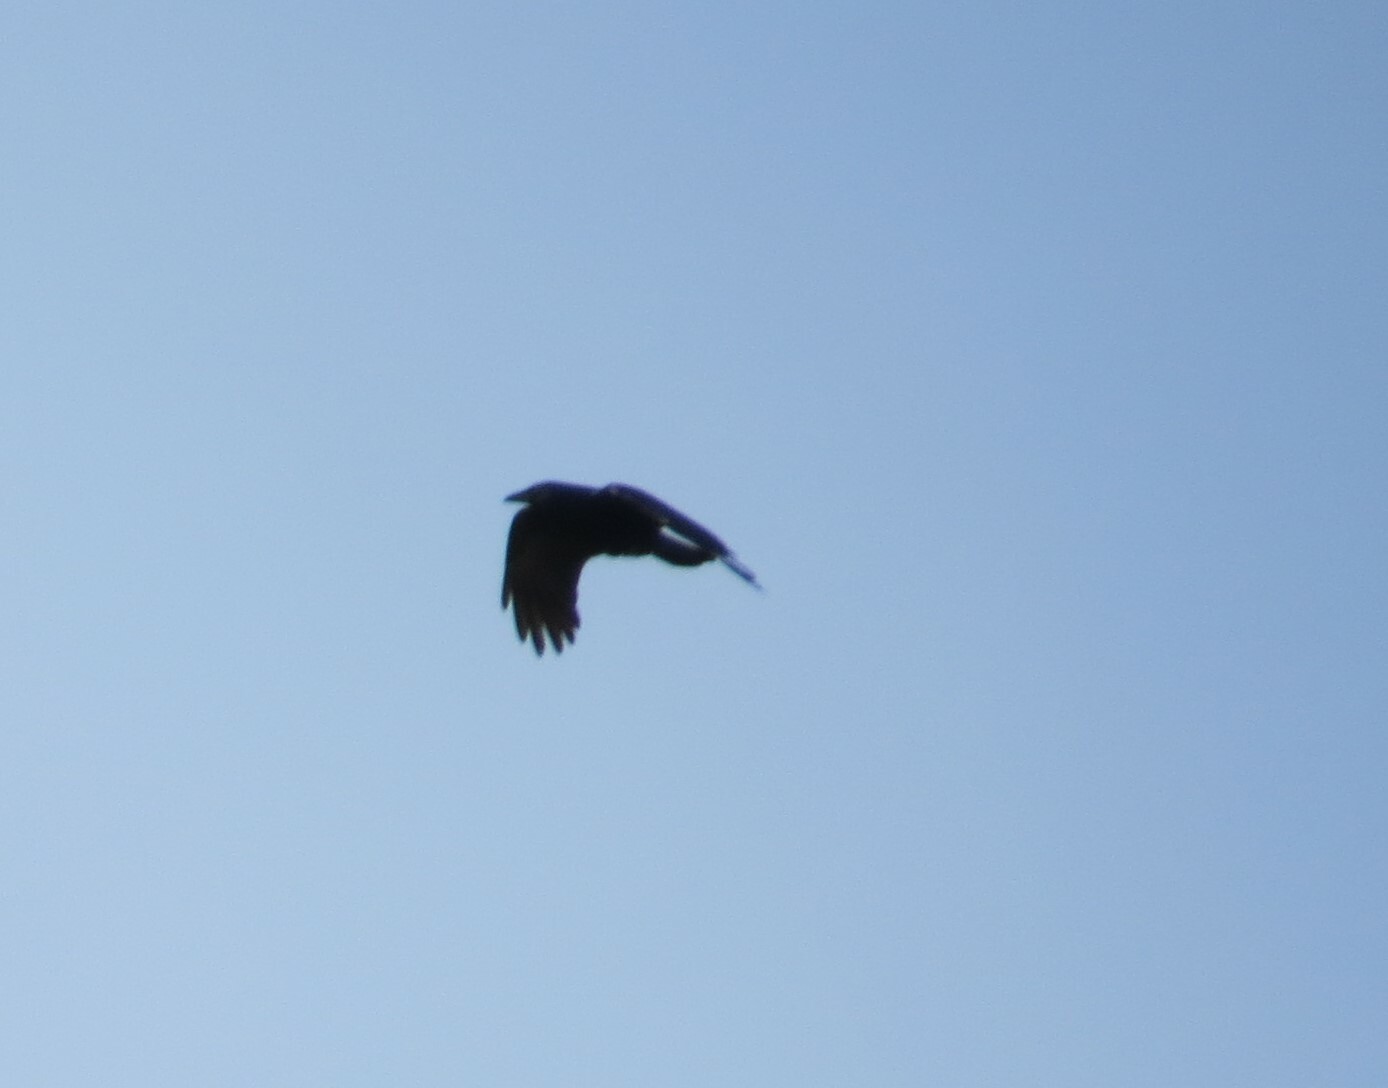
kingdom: Animalia
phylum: Chordata
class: Aves
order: Passeriformes
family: Corvidae
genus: Corvus
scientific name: Corvus brachyrhynchos
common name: American crow
